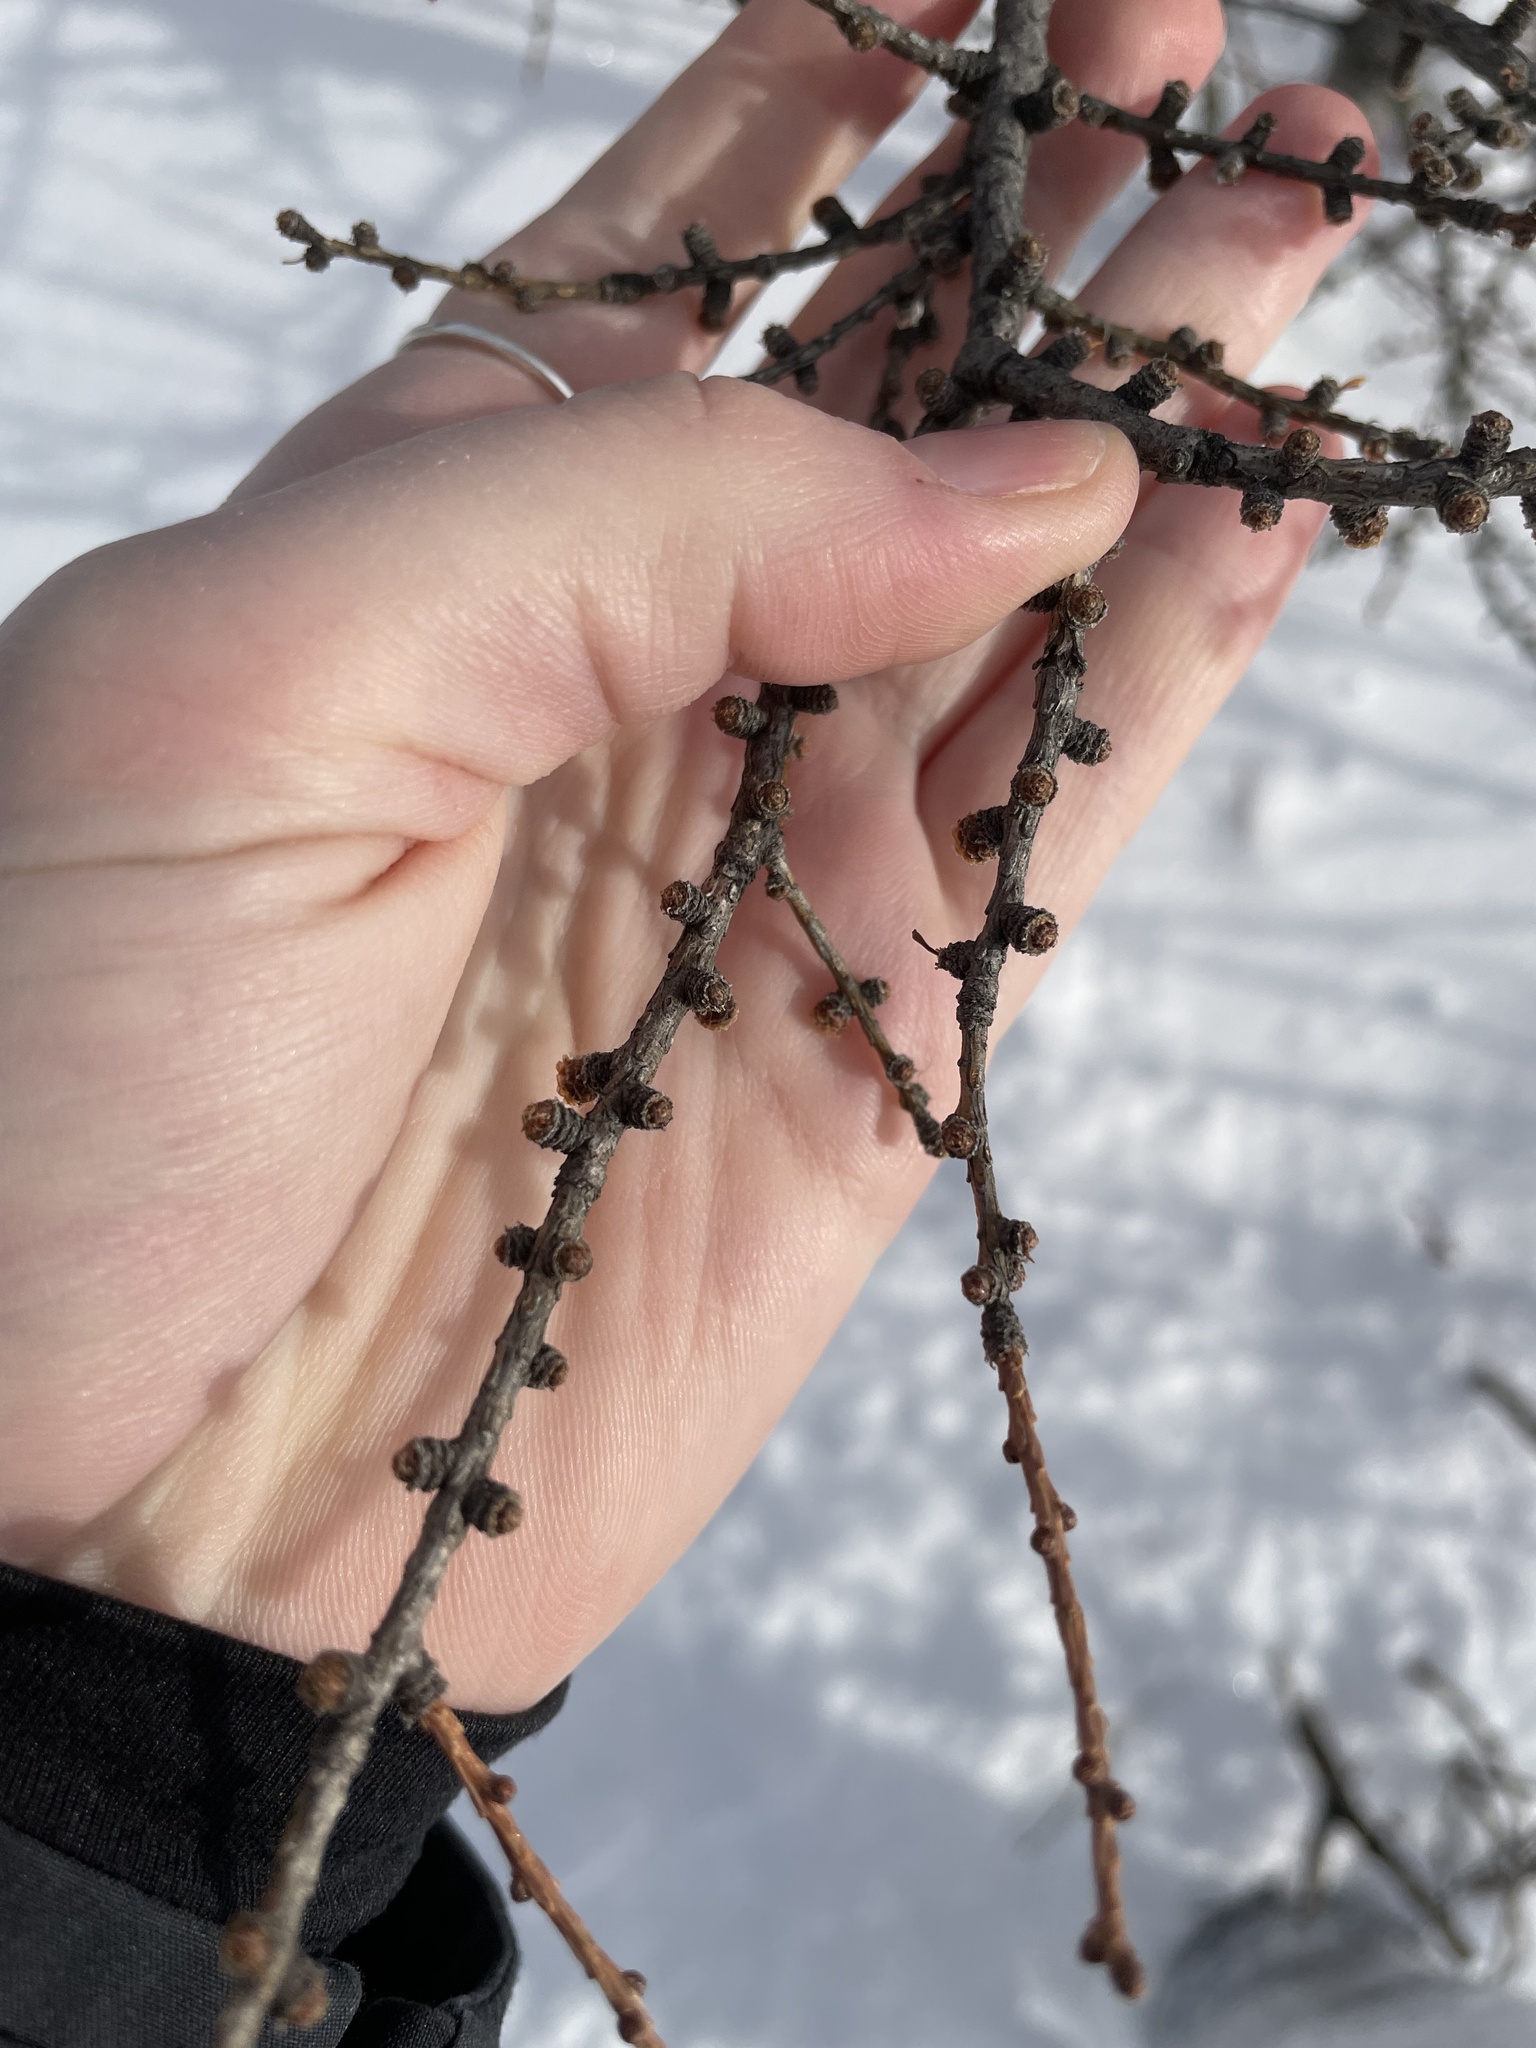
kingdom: Plantae
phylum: Tracheophyta
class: Pinopsida
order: Pinales
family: Pinaceae
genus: Larix
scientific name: Larix laricina
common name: American larch
